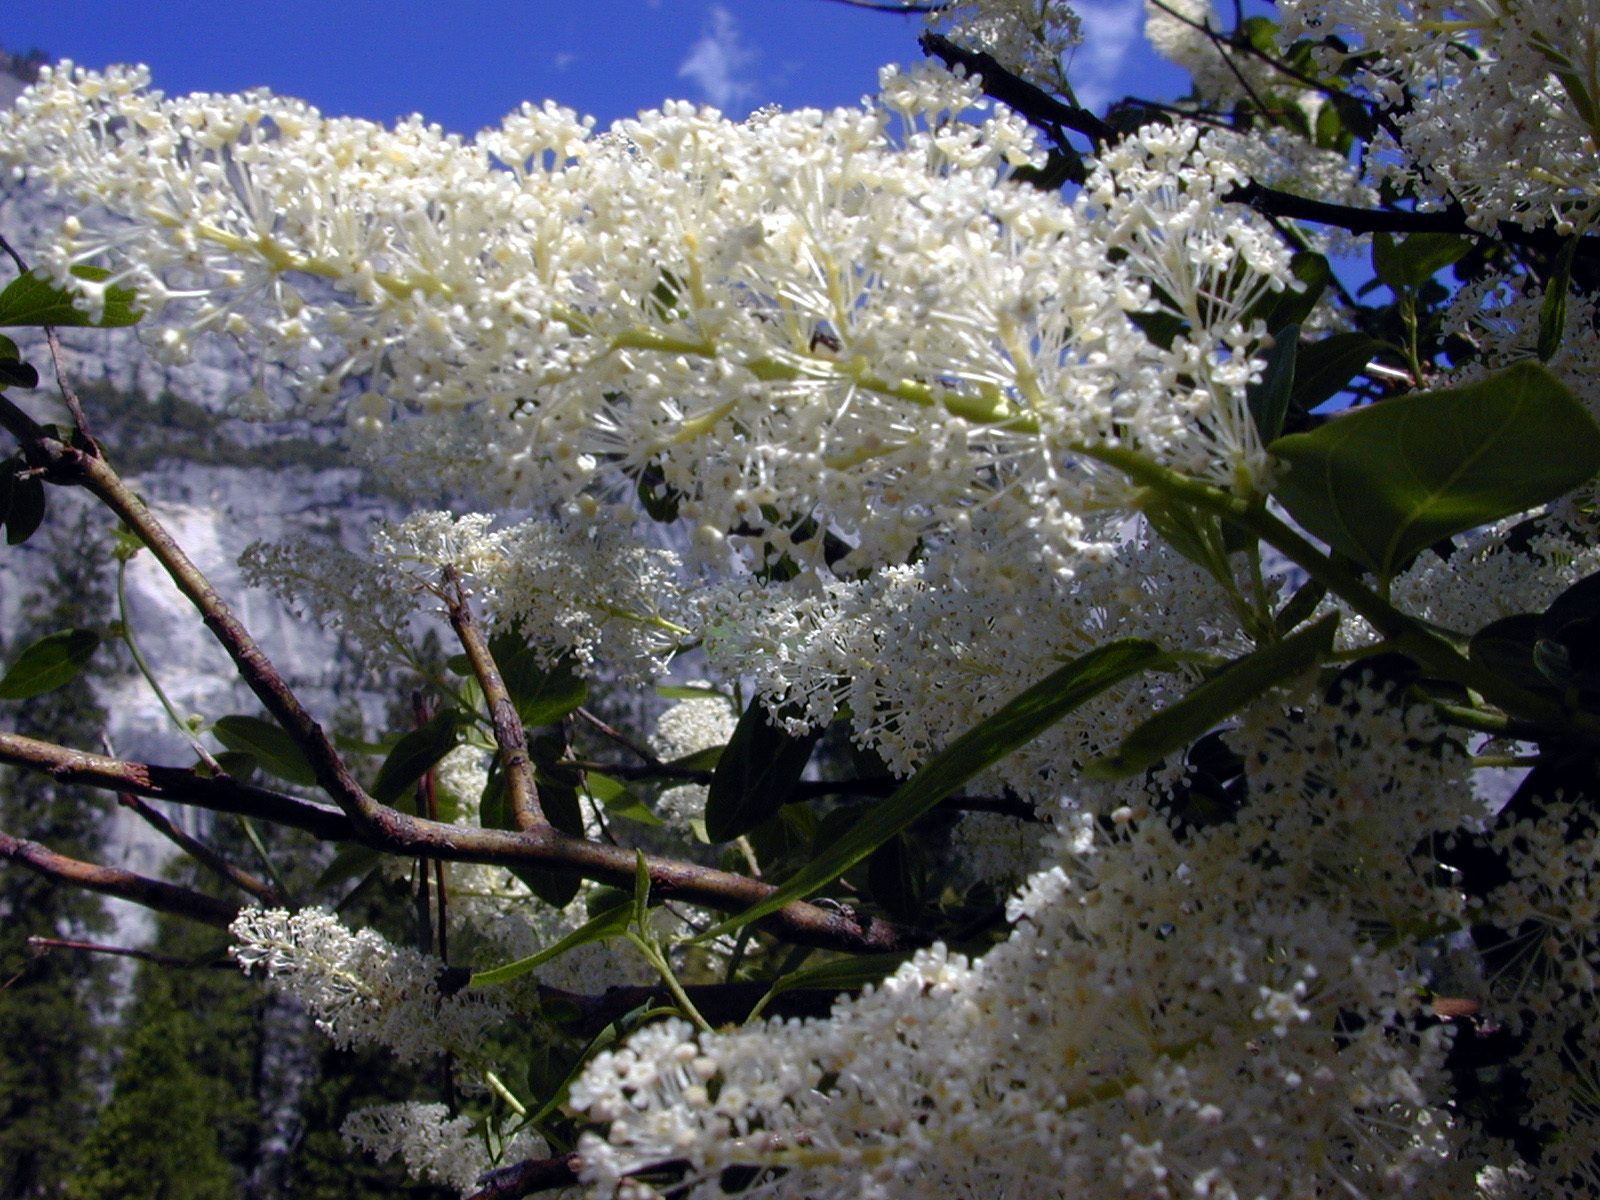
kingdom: Plantae
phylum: Tracheophyta
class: Magnoliopsida
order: Rosales
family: Rhamnaceae
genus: Ceanothus
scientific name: Ceanothus integerrimus
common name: Deerbrush ceanothus
